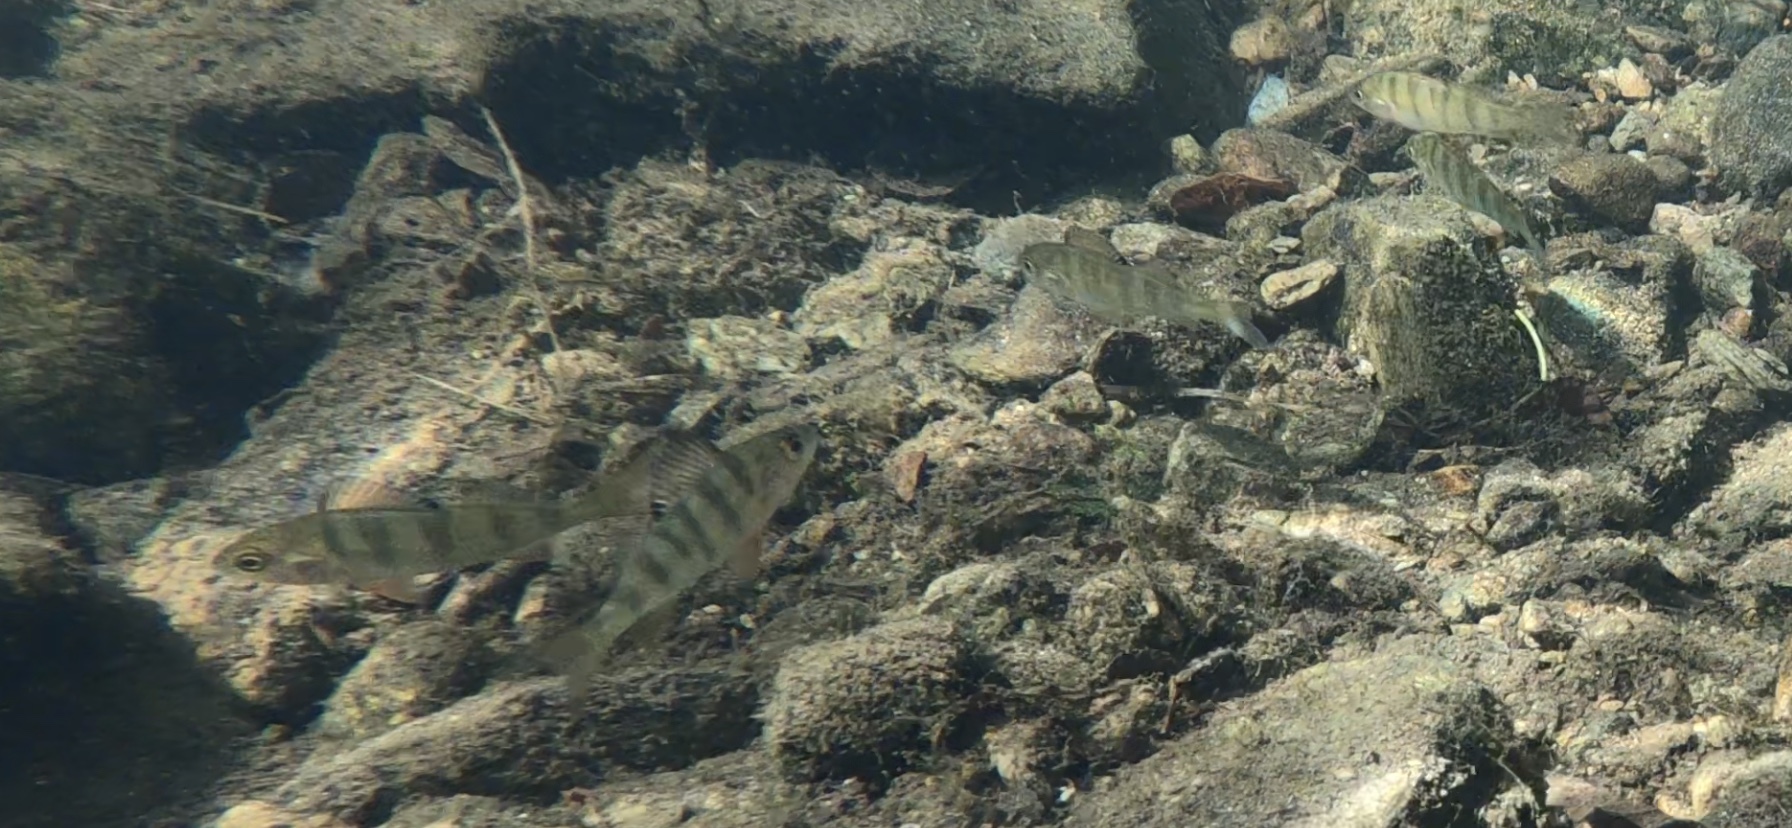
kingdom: Animalia
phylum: Chordata
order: Perciformes
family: Percidae
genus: Perca
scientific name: Perca fluviatilis
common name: Perch
